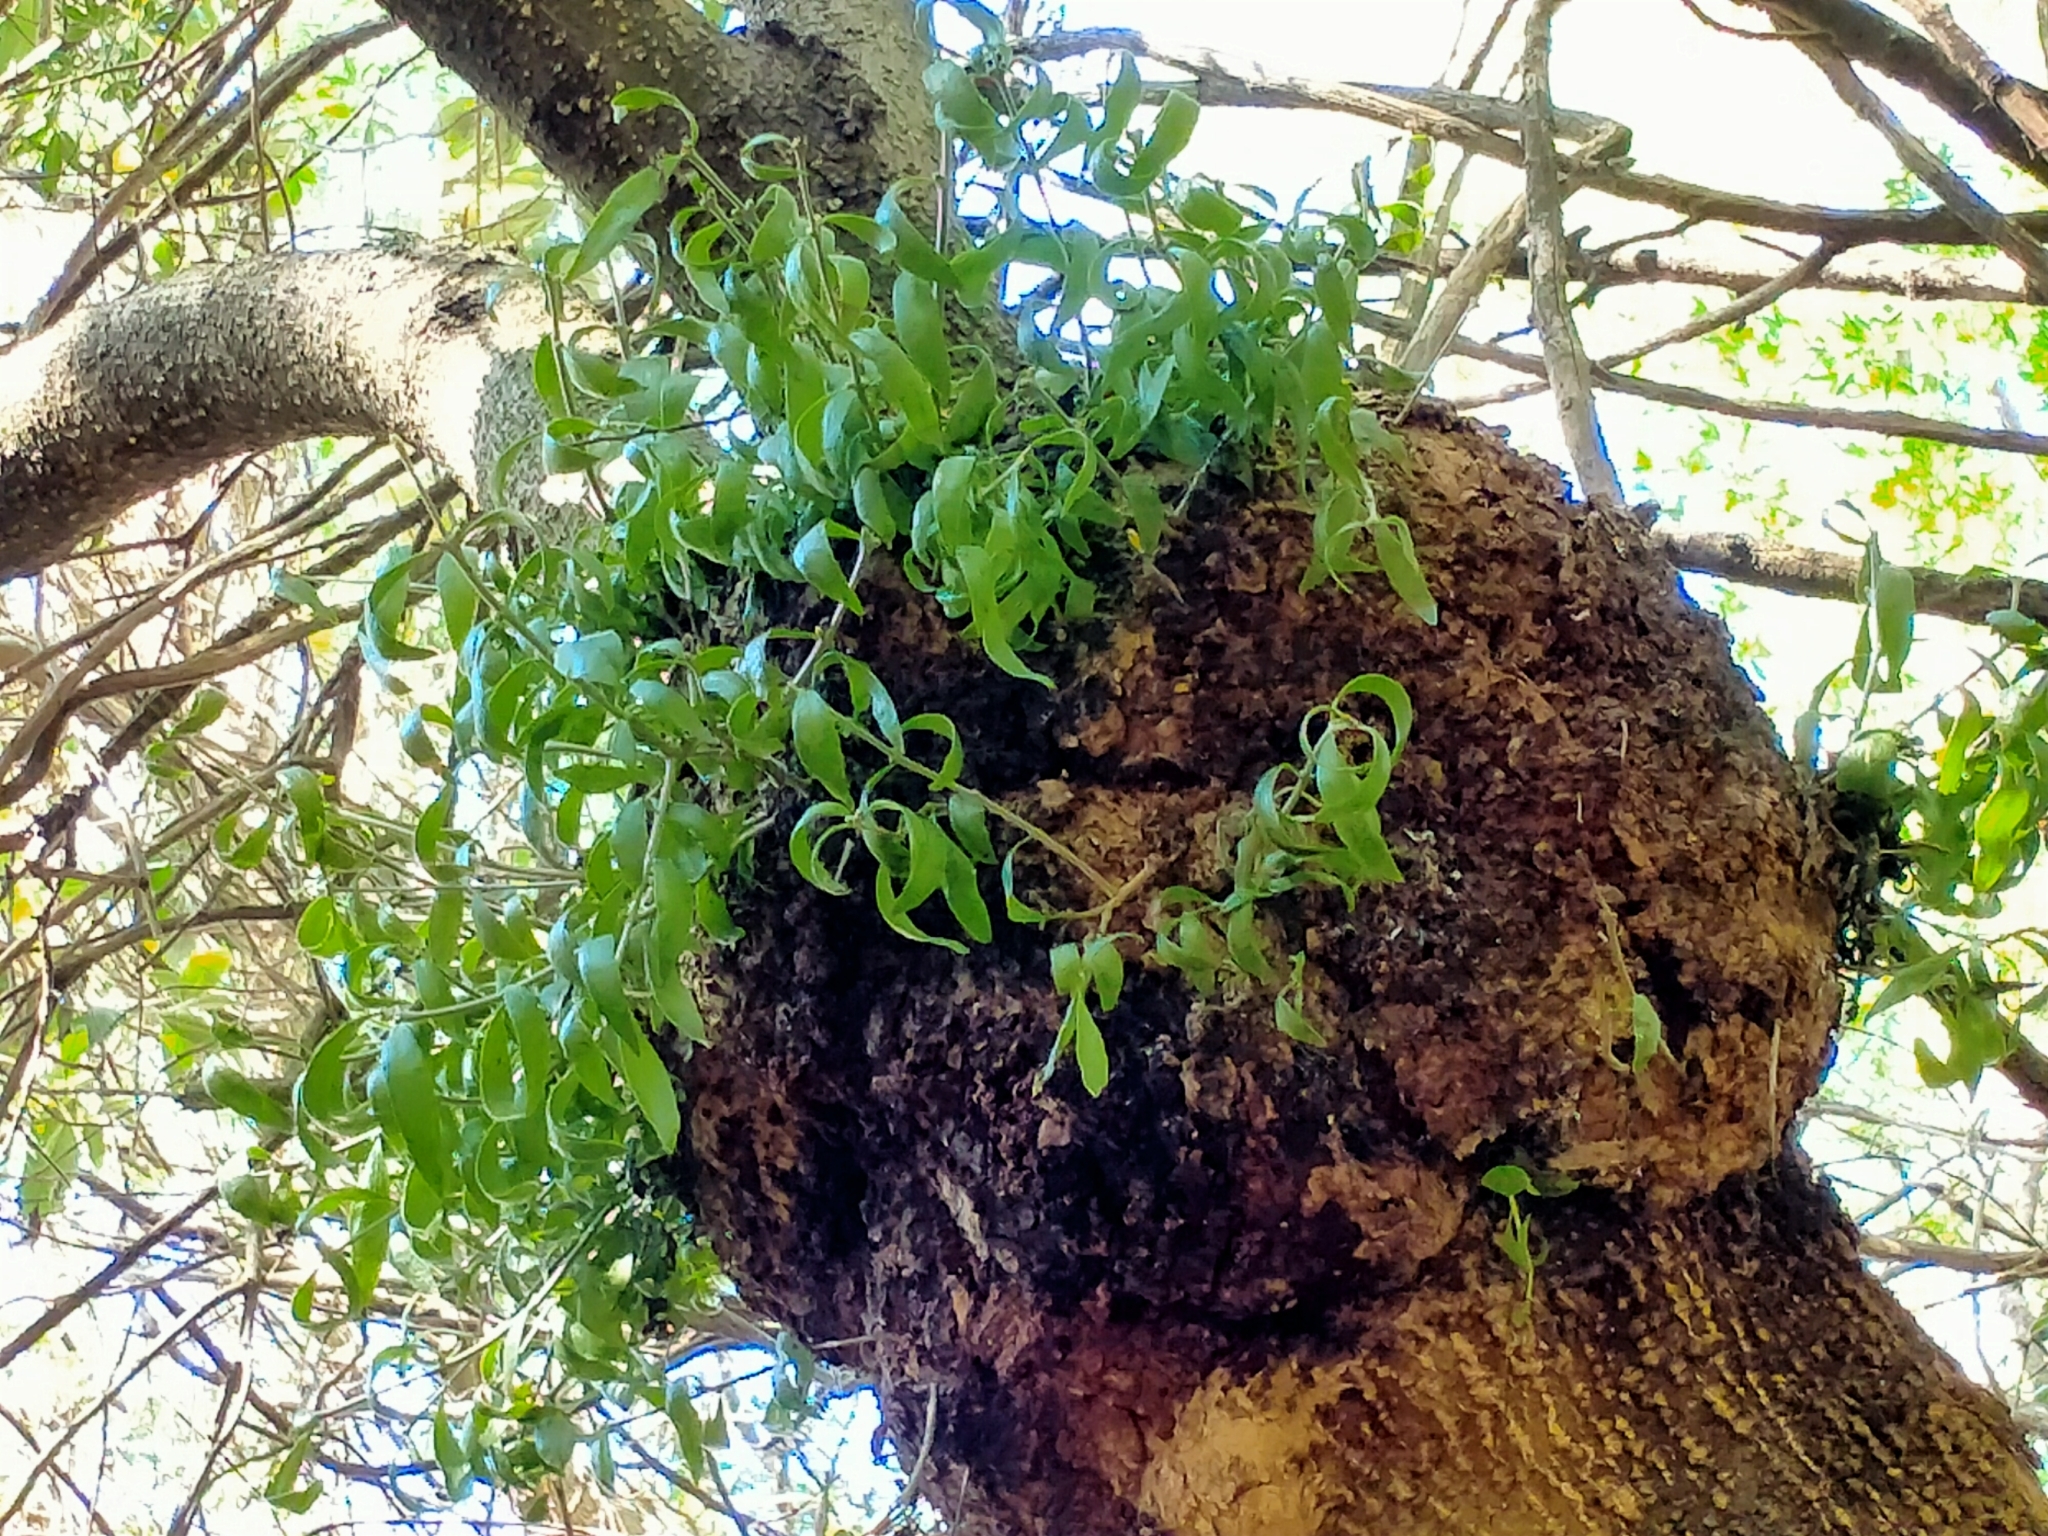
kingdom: Plantae
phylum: Tracheophyta
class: Magnoliopsida
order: Santalales
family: Loranthaceae
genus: Tupeia
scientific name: Tupeia antarctica
